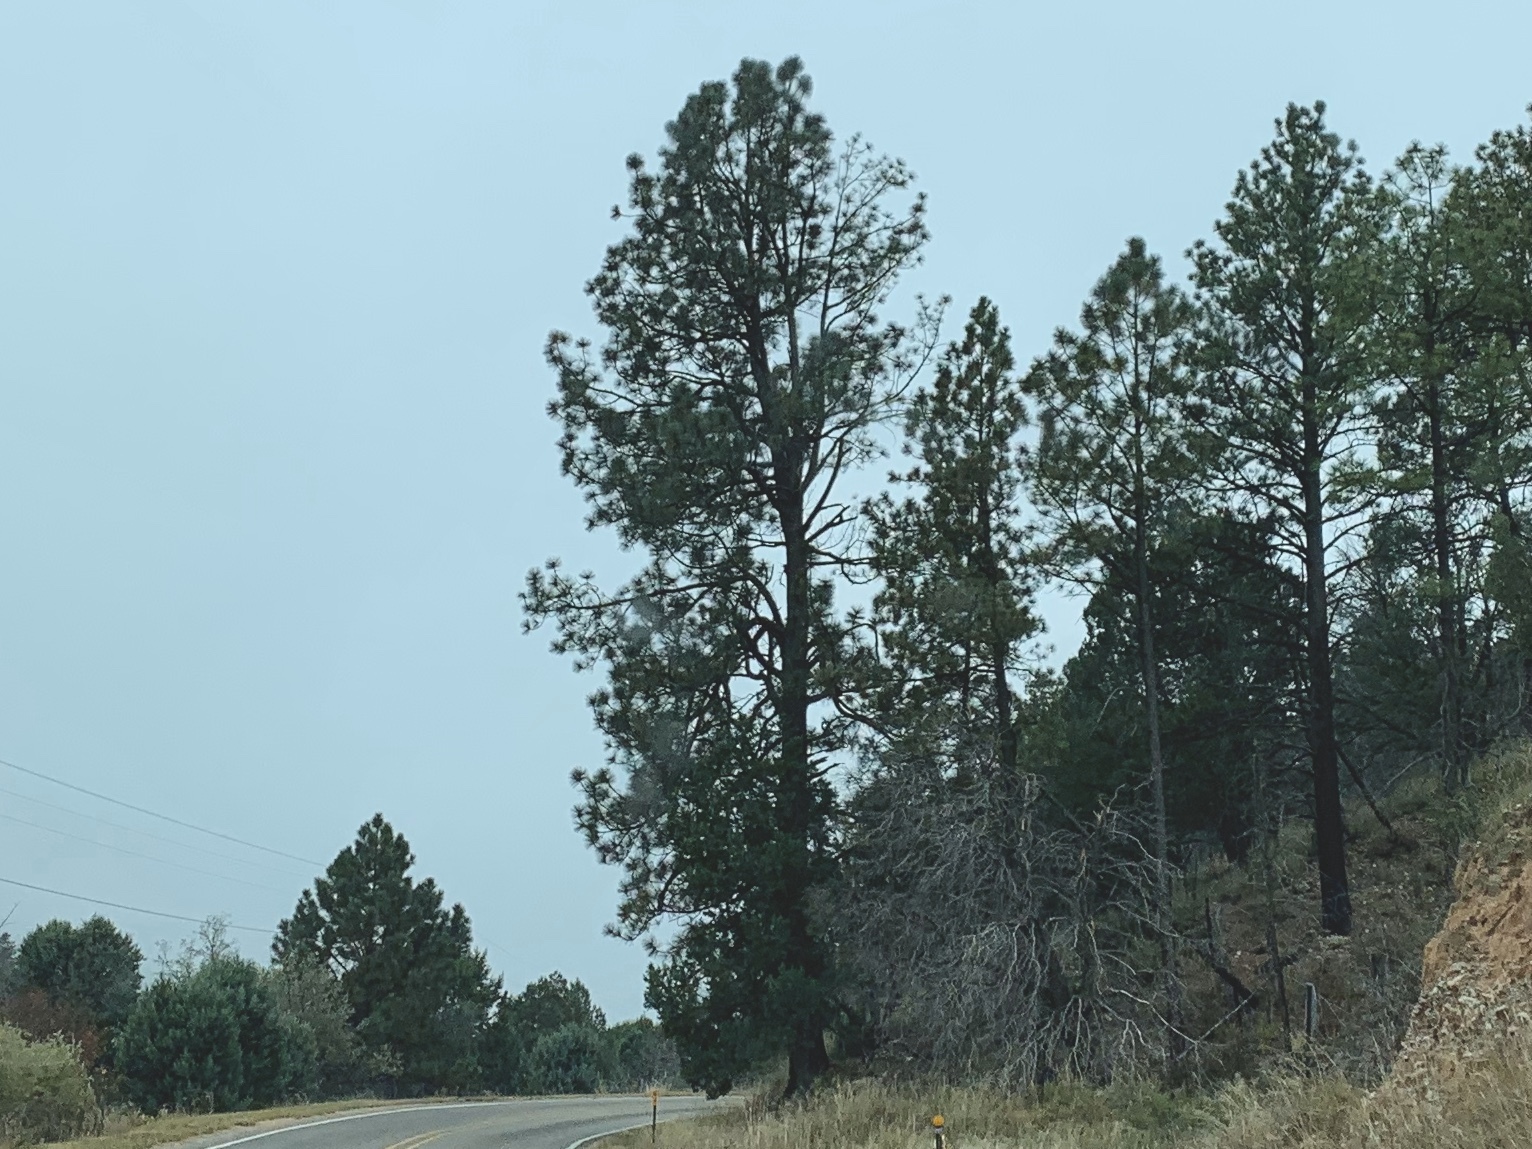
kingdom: Plantae
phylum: Tracheophyta
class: Pinopsida
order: Pinales
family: Pinaceae
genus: Pinus
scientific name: Pinus ponderosa
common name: Western yellow-pine
